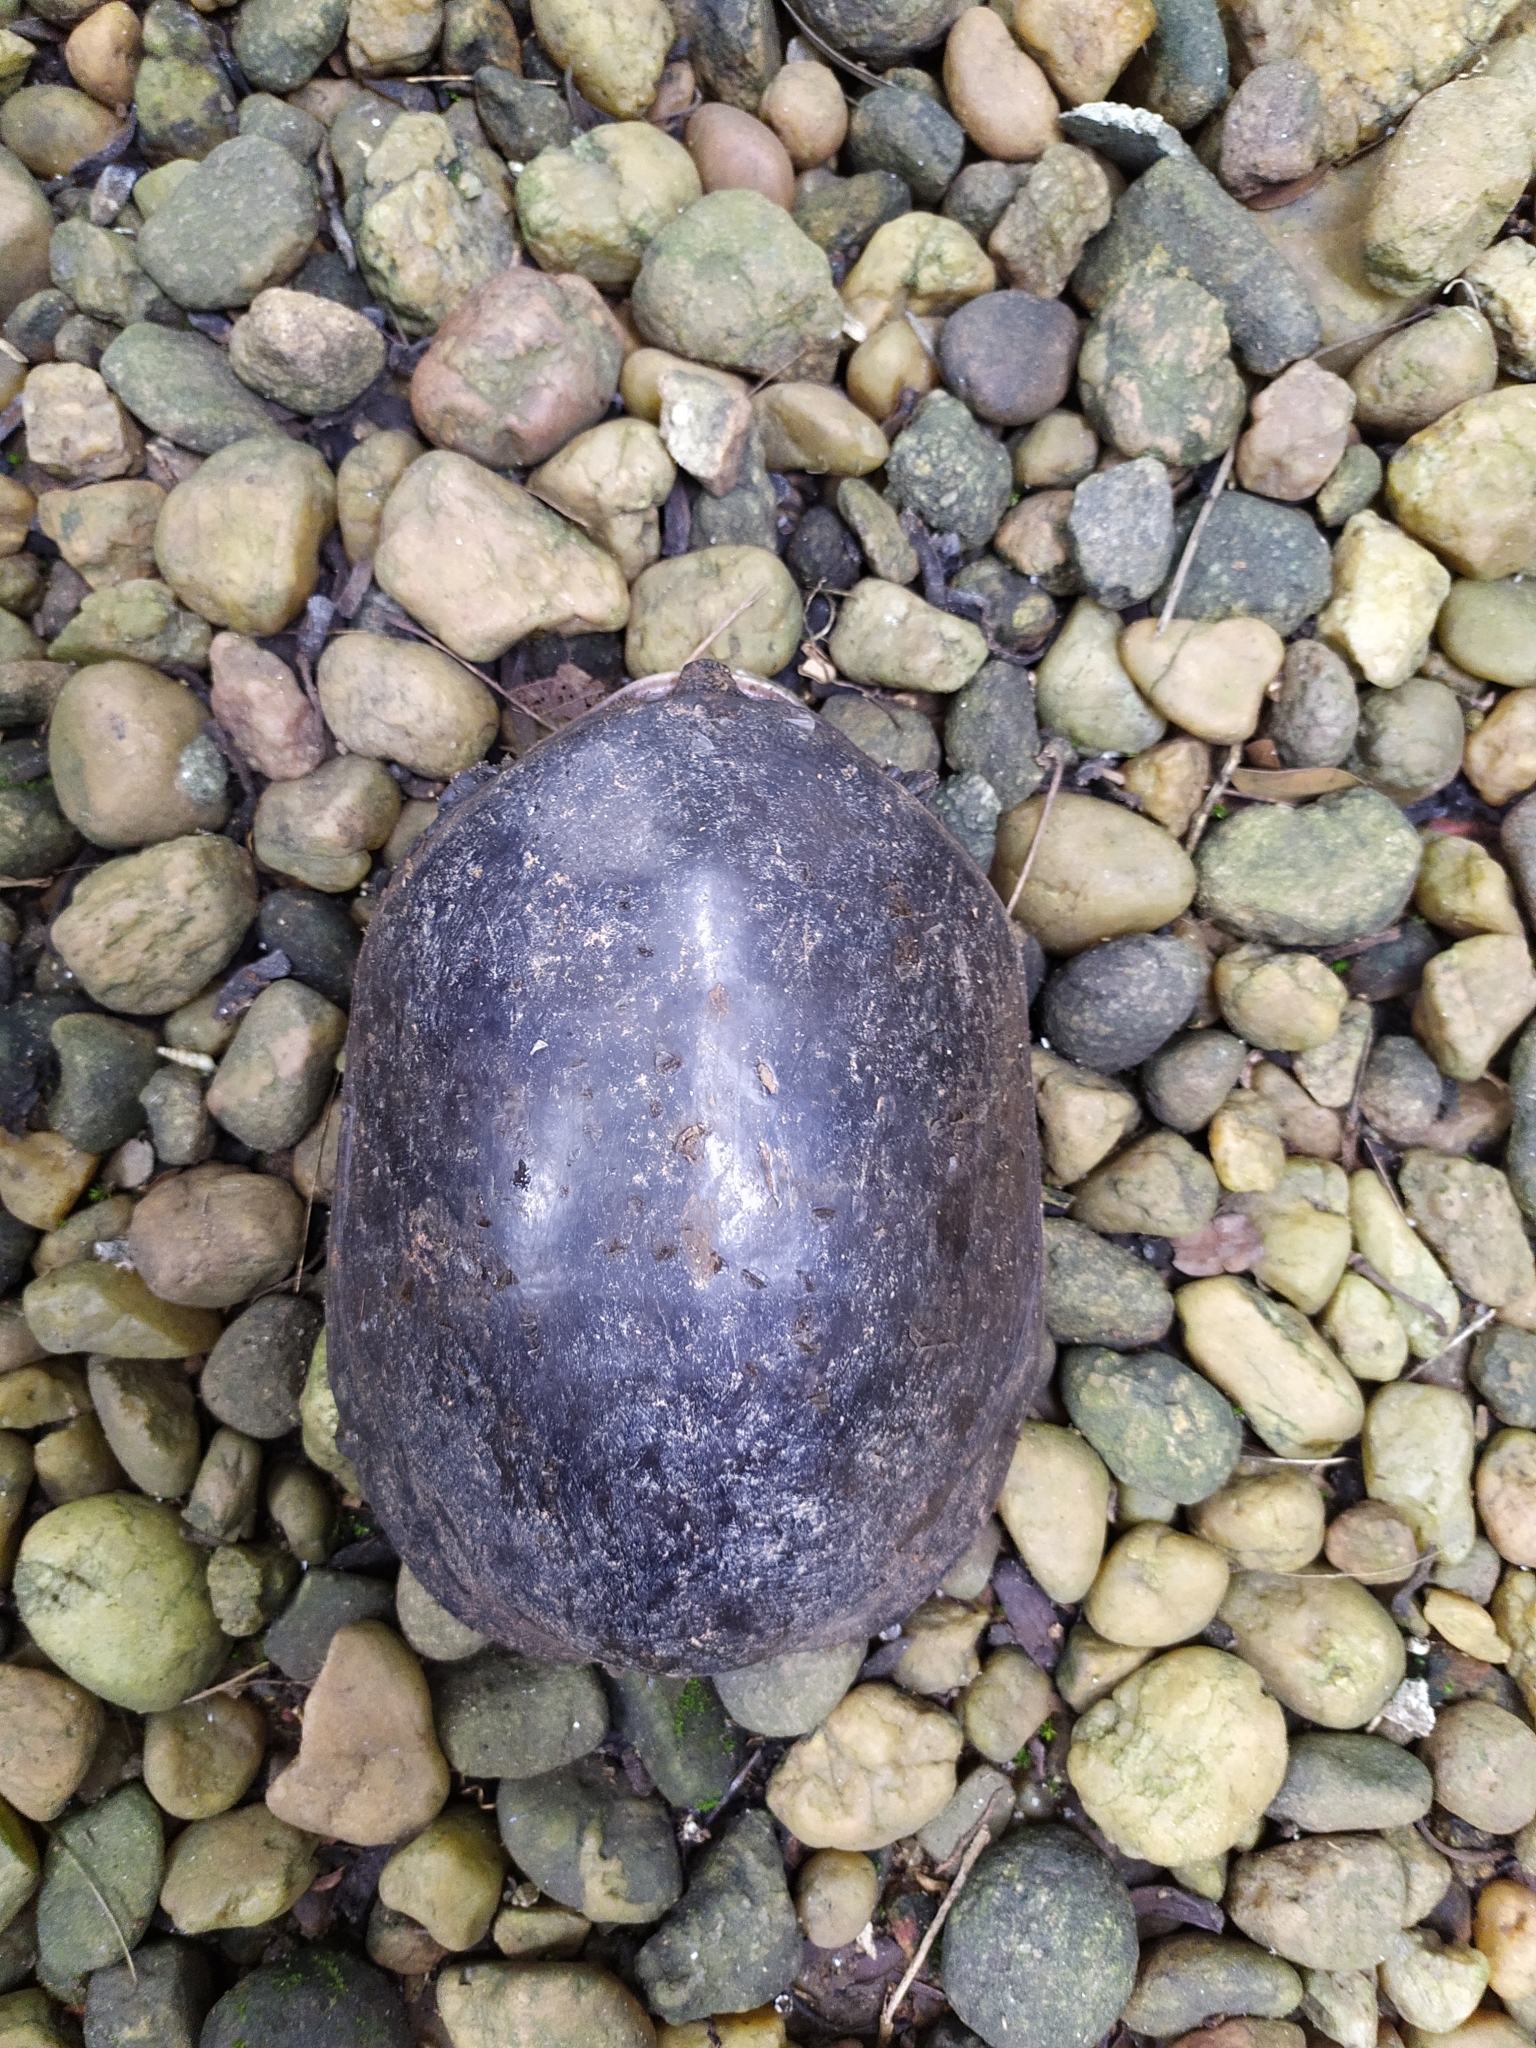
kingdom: Animalia
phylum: Chordata
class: Testudines
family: Trionychidae
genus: Lissemys
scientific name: Lissemys punctata
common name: Indian flap-shelled turtle
